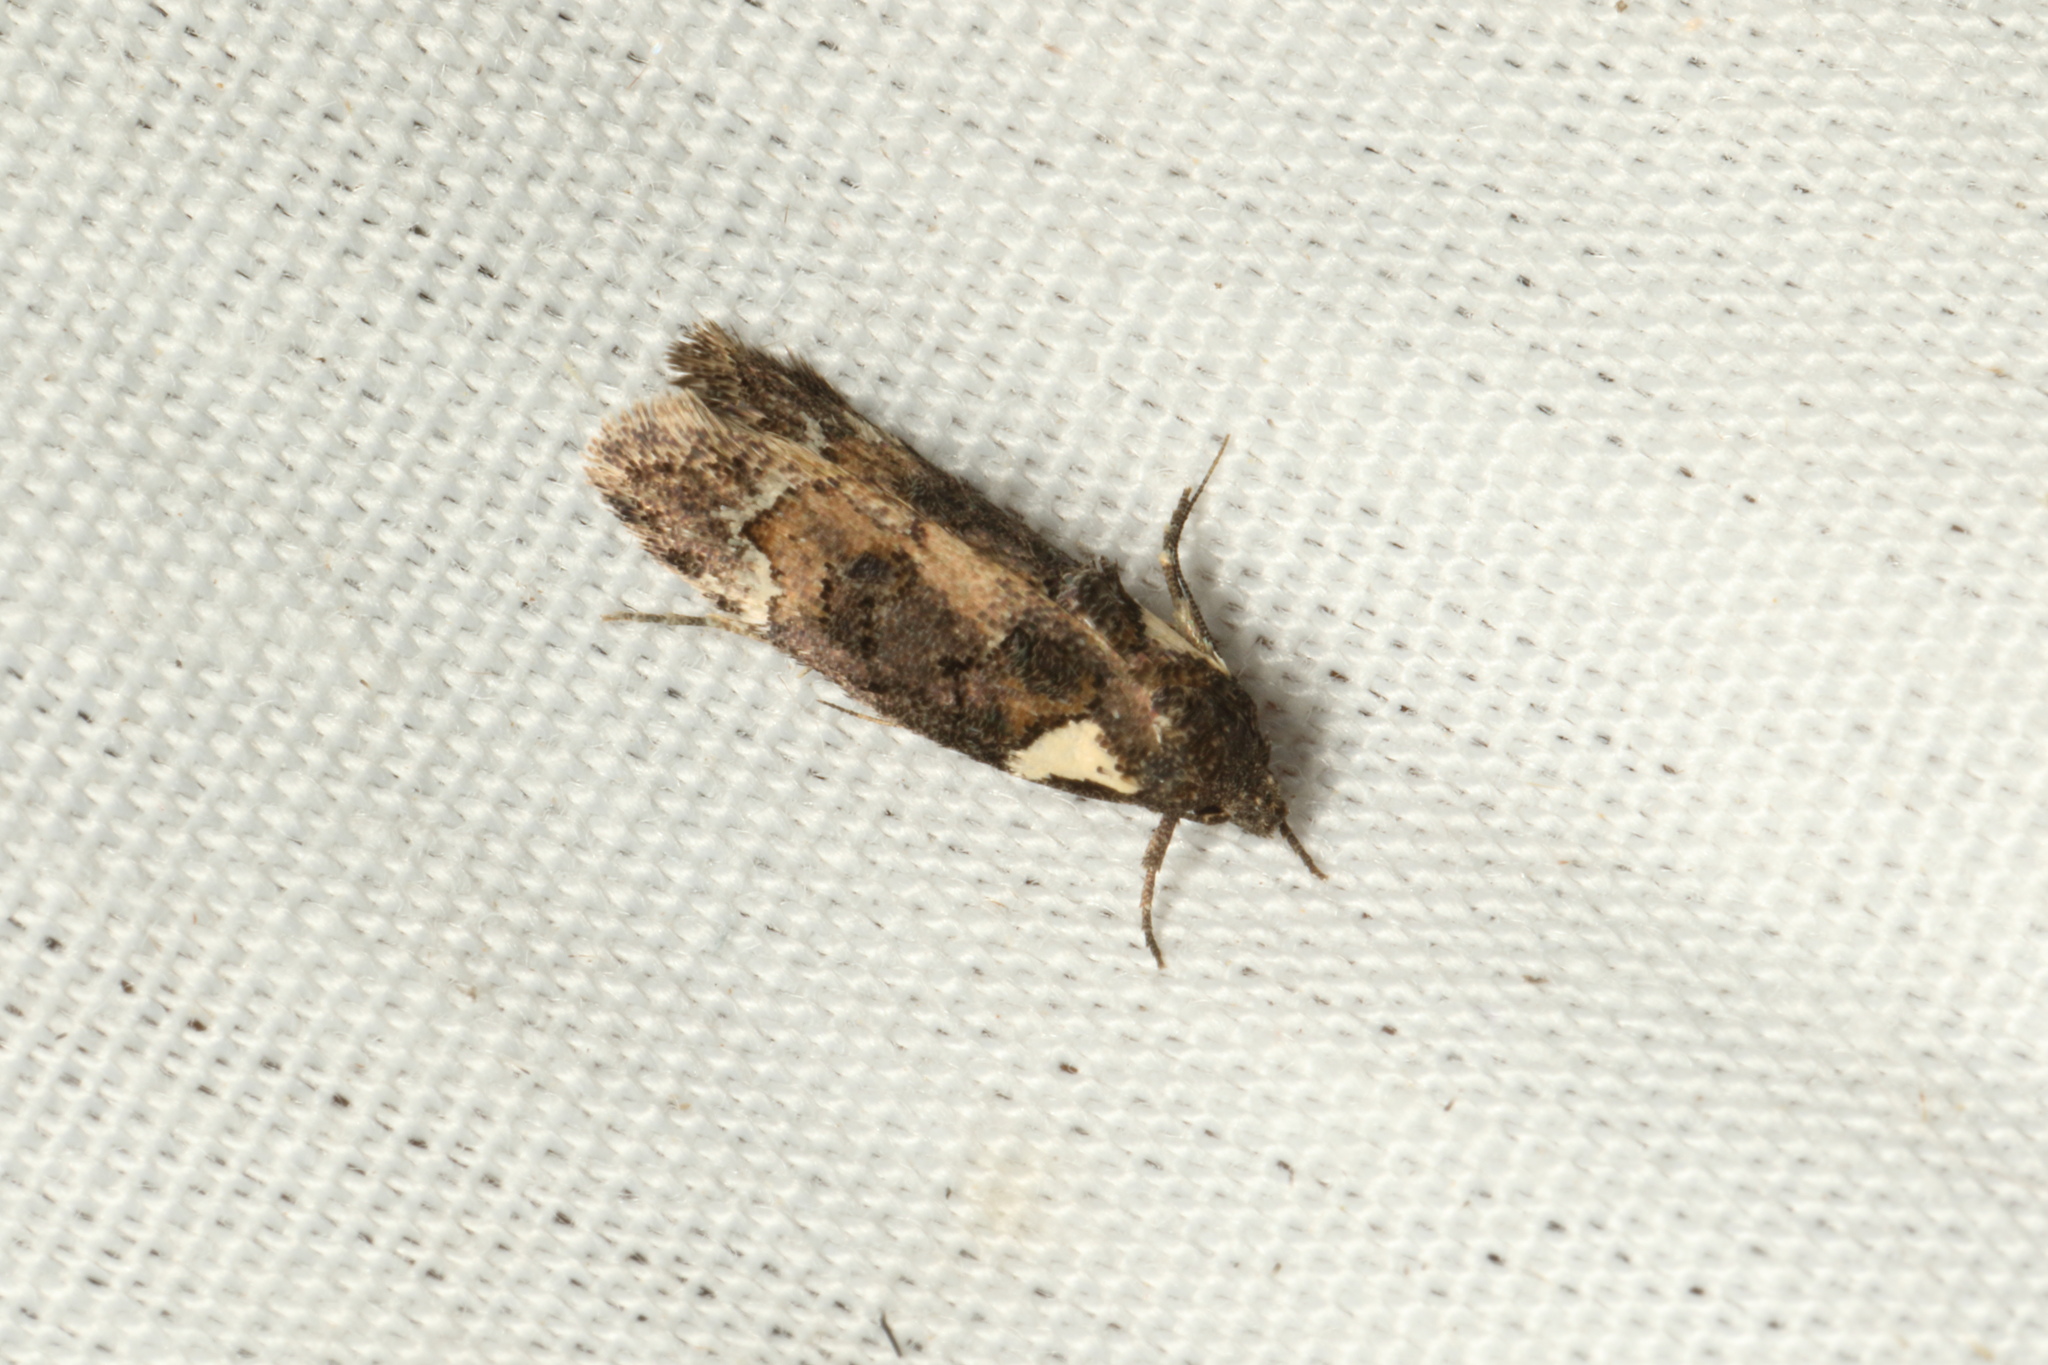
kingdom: Animalia
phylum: Arthropoda
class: Insecta
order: Lepidoptera
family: Oecophoridae
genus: Trachypepla
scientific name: Trachypepla conspicuella
